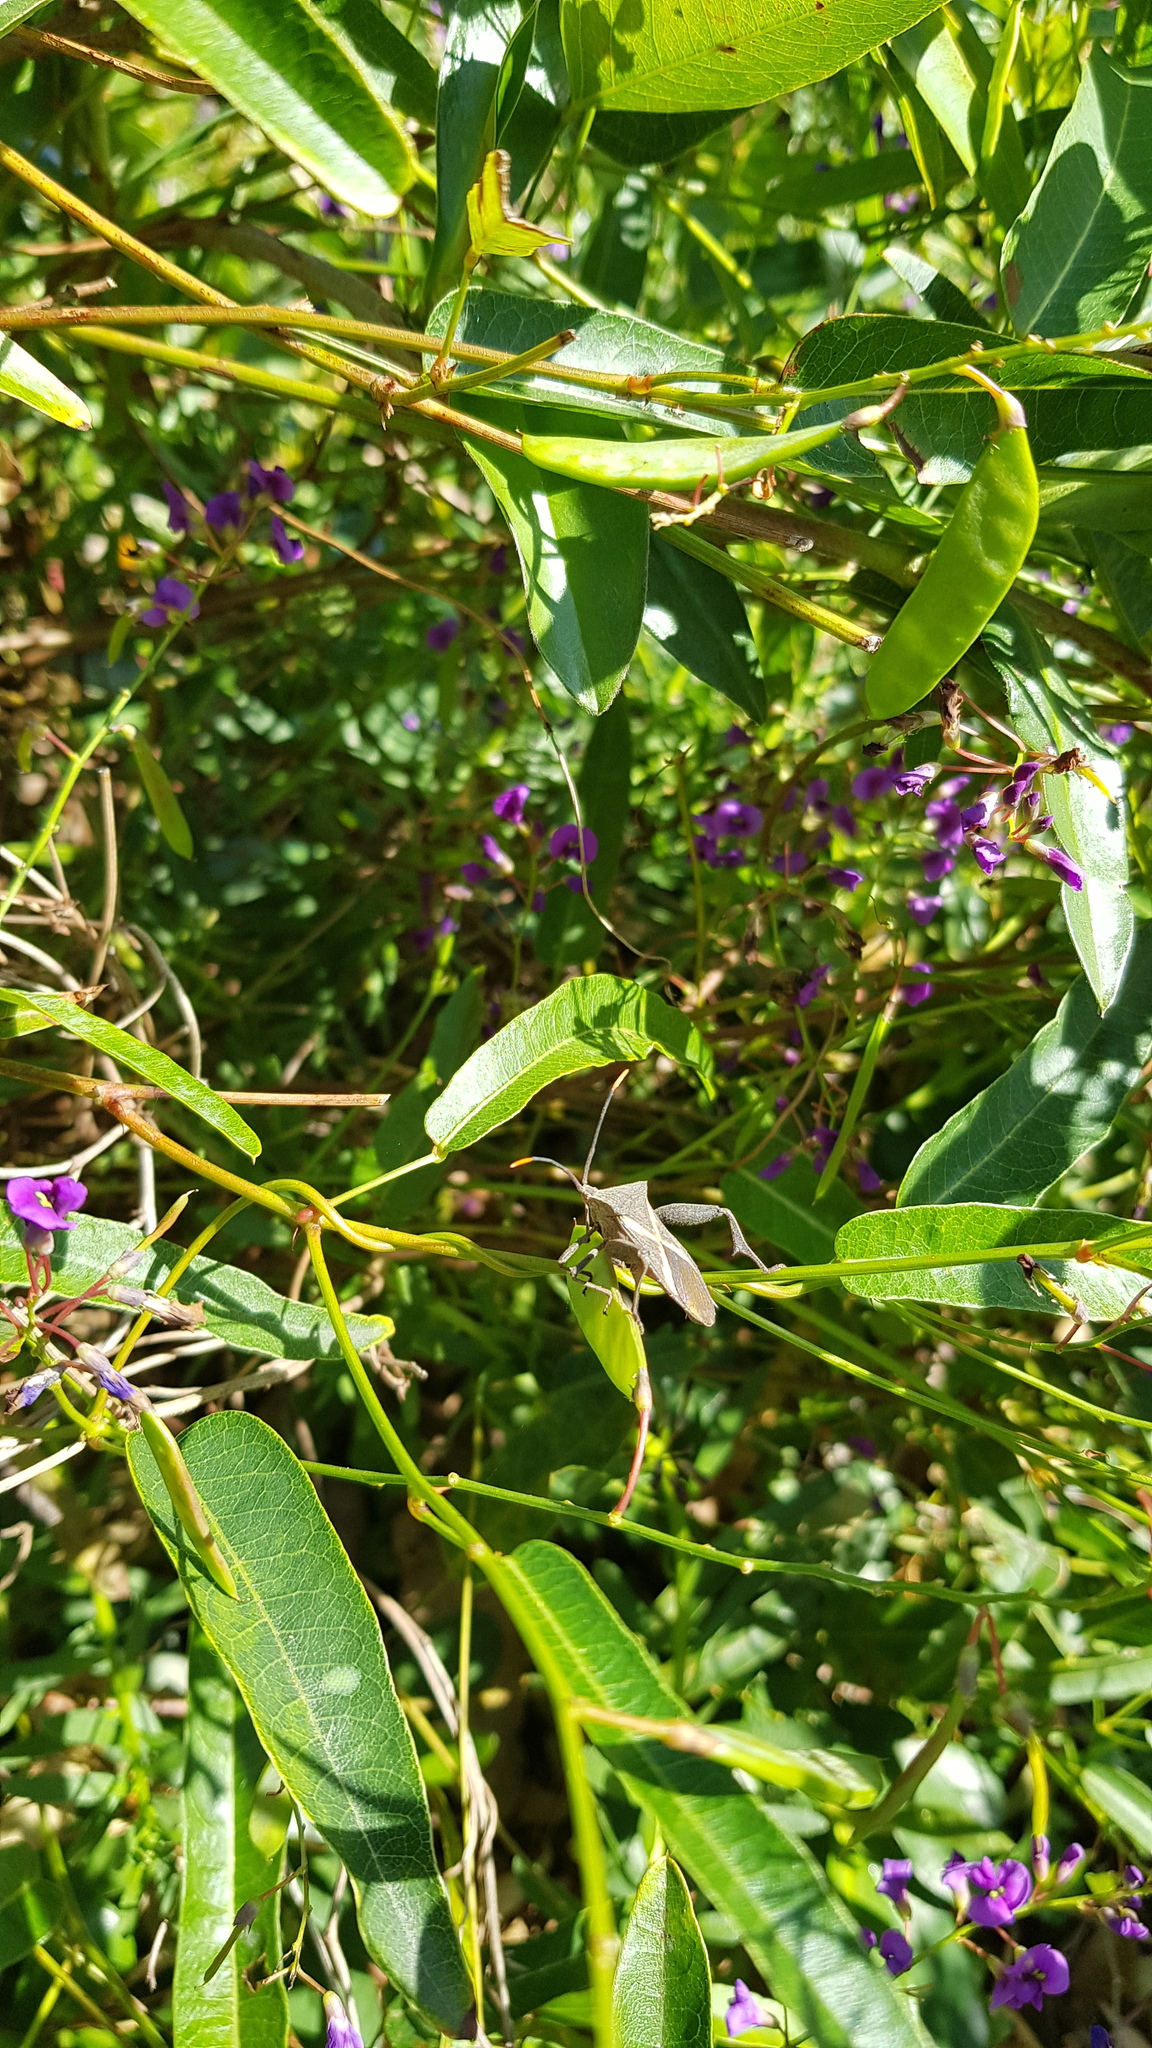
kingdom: Animalia
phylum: Arthropoda
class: Insecta
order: Hemiptera
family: Coreidae
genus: Mictis
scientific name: Mictis profana
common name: Crusader bug
